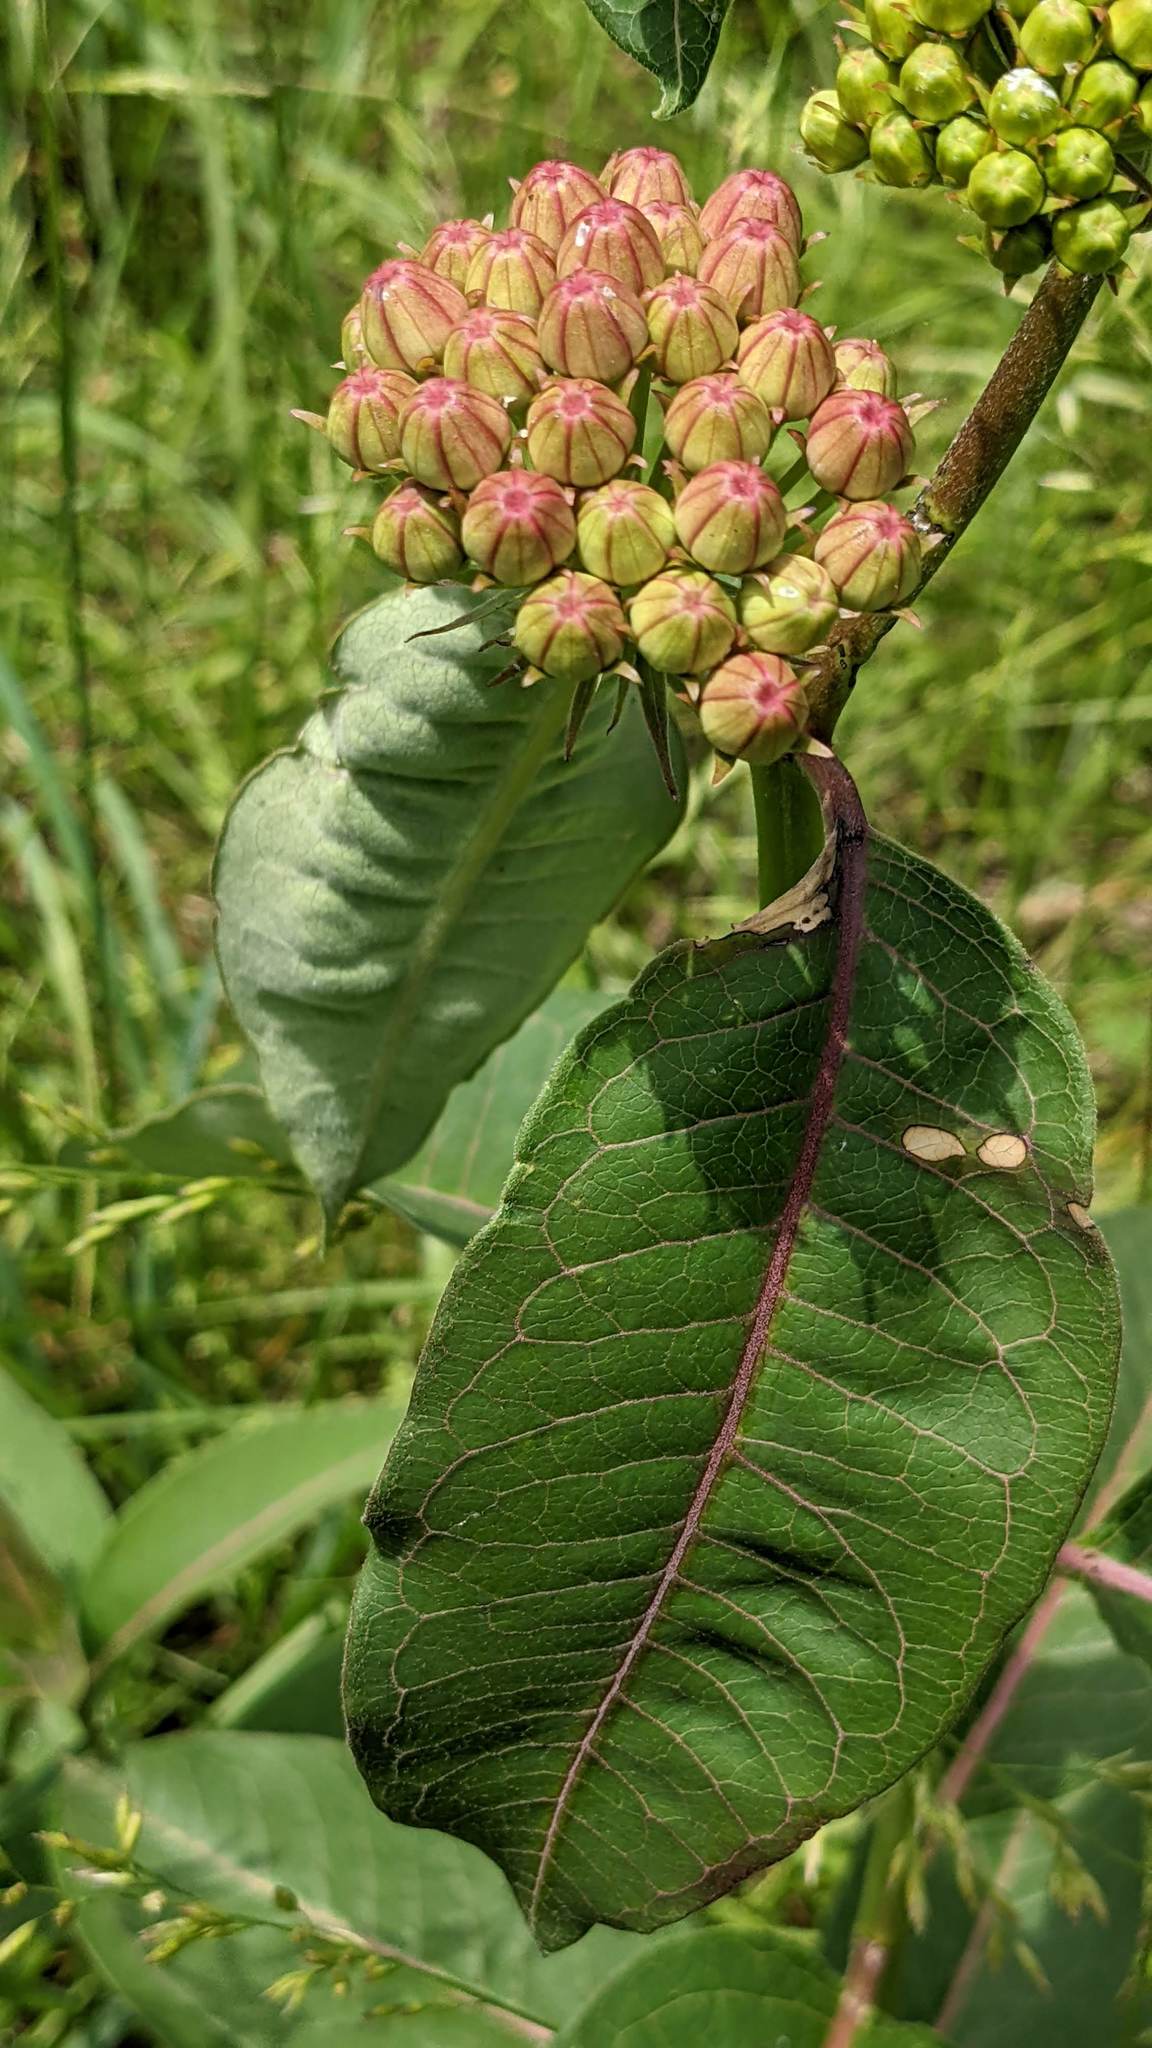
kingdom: Plantae
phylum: Tracheophyta
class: Magnoliopsida
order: Gentianales
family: Apocynaceae
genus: Asclepias
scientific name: Asclepias purpurascens
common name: Purple milkweed
